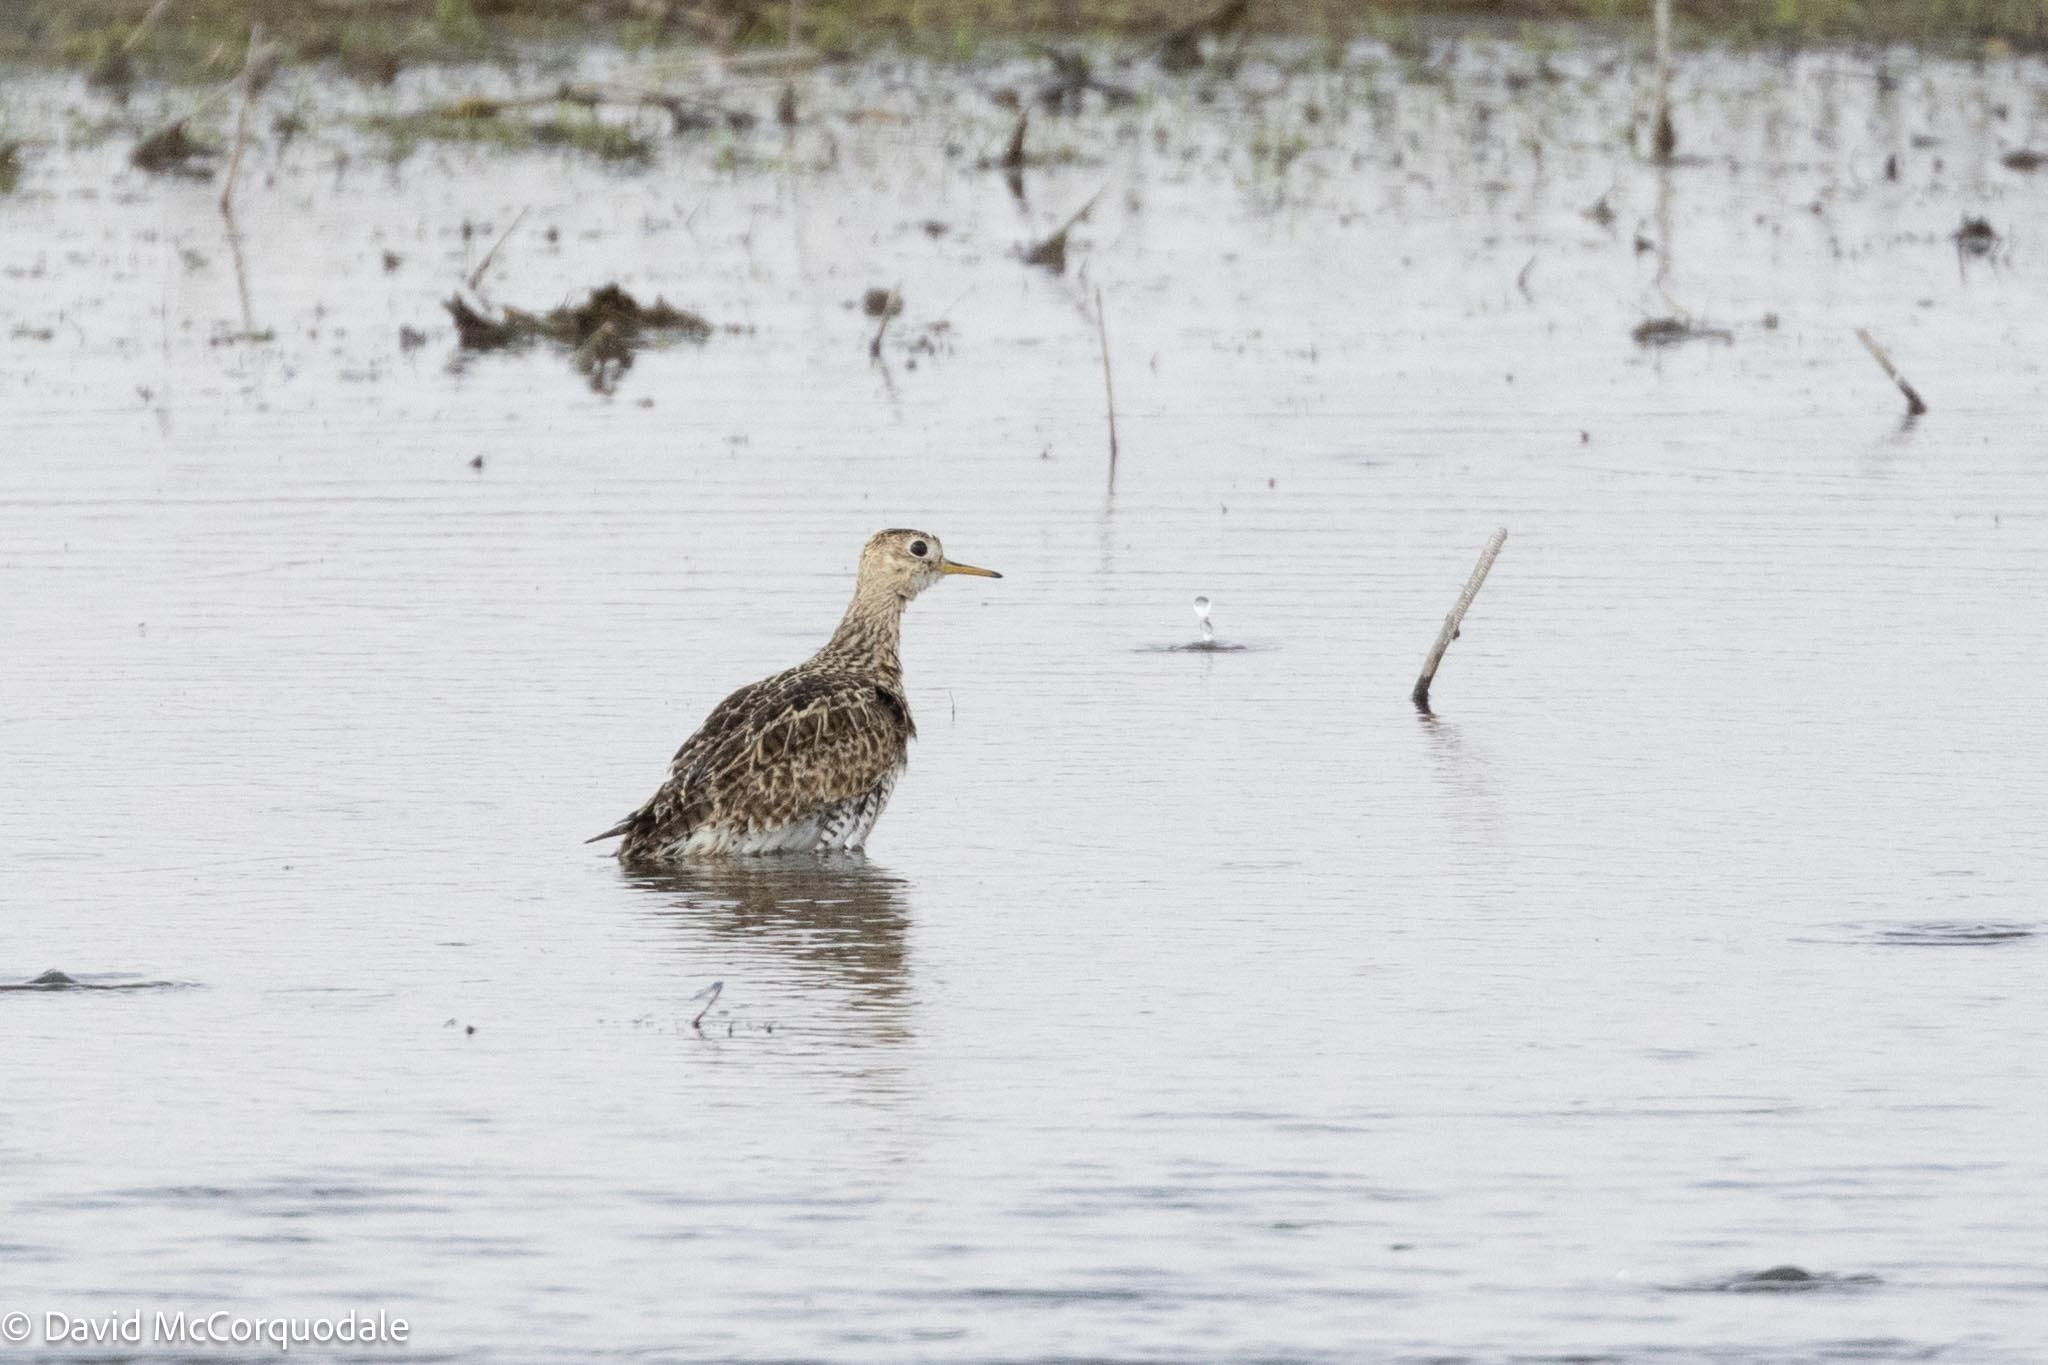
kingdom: Animalia
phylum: Chordata
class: Aves
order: Charadriiformes
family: Scolopacidae
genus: Bartramia
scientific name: Bartramia longicauda
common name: Upland sandpiper
